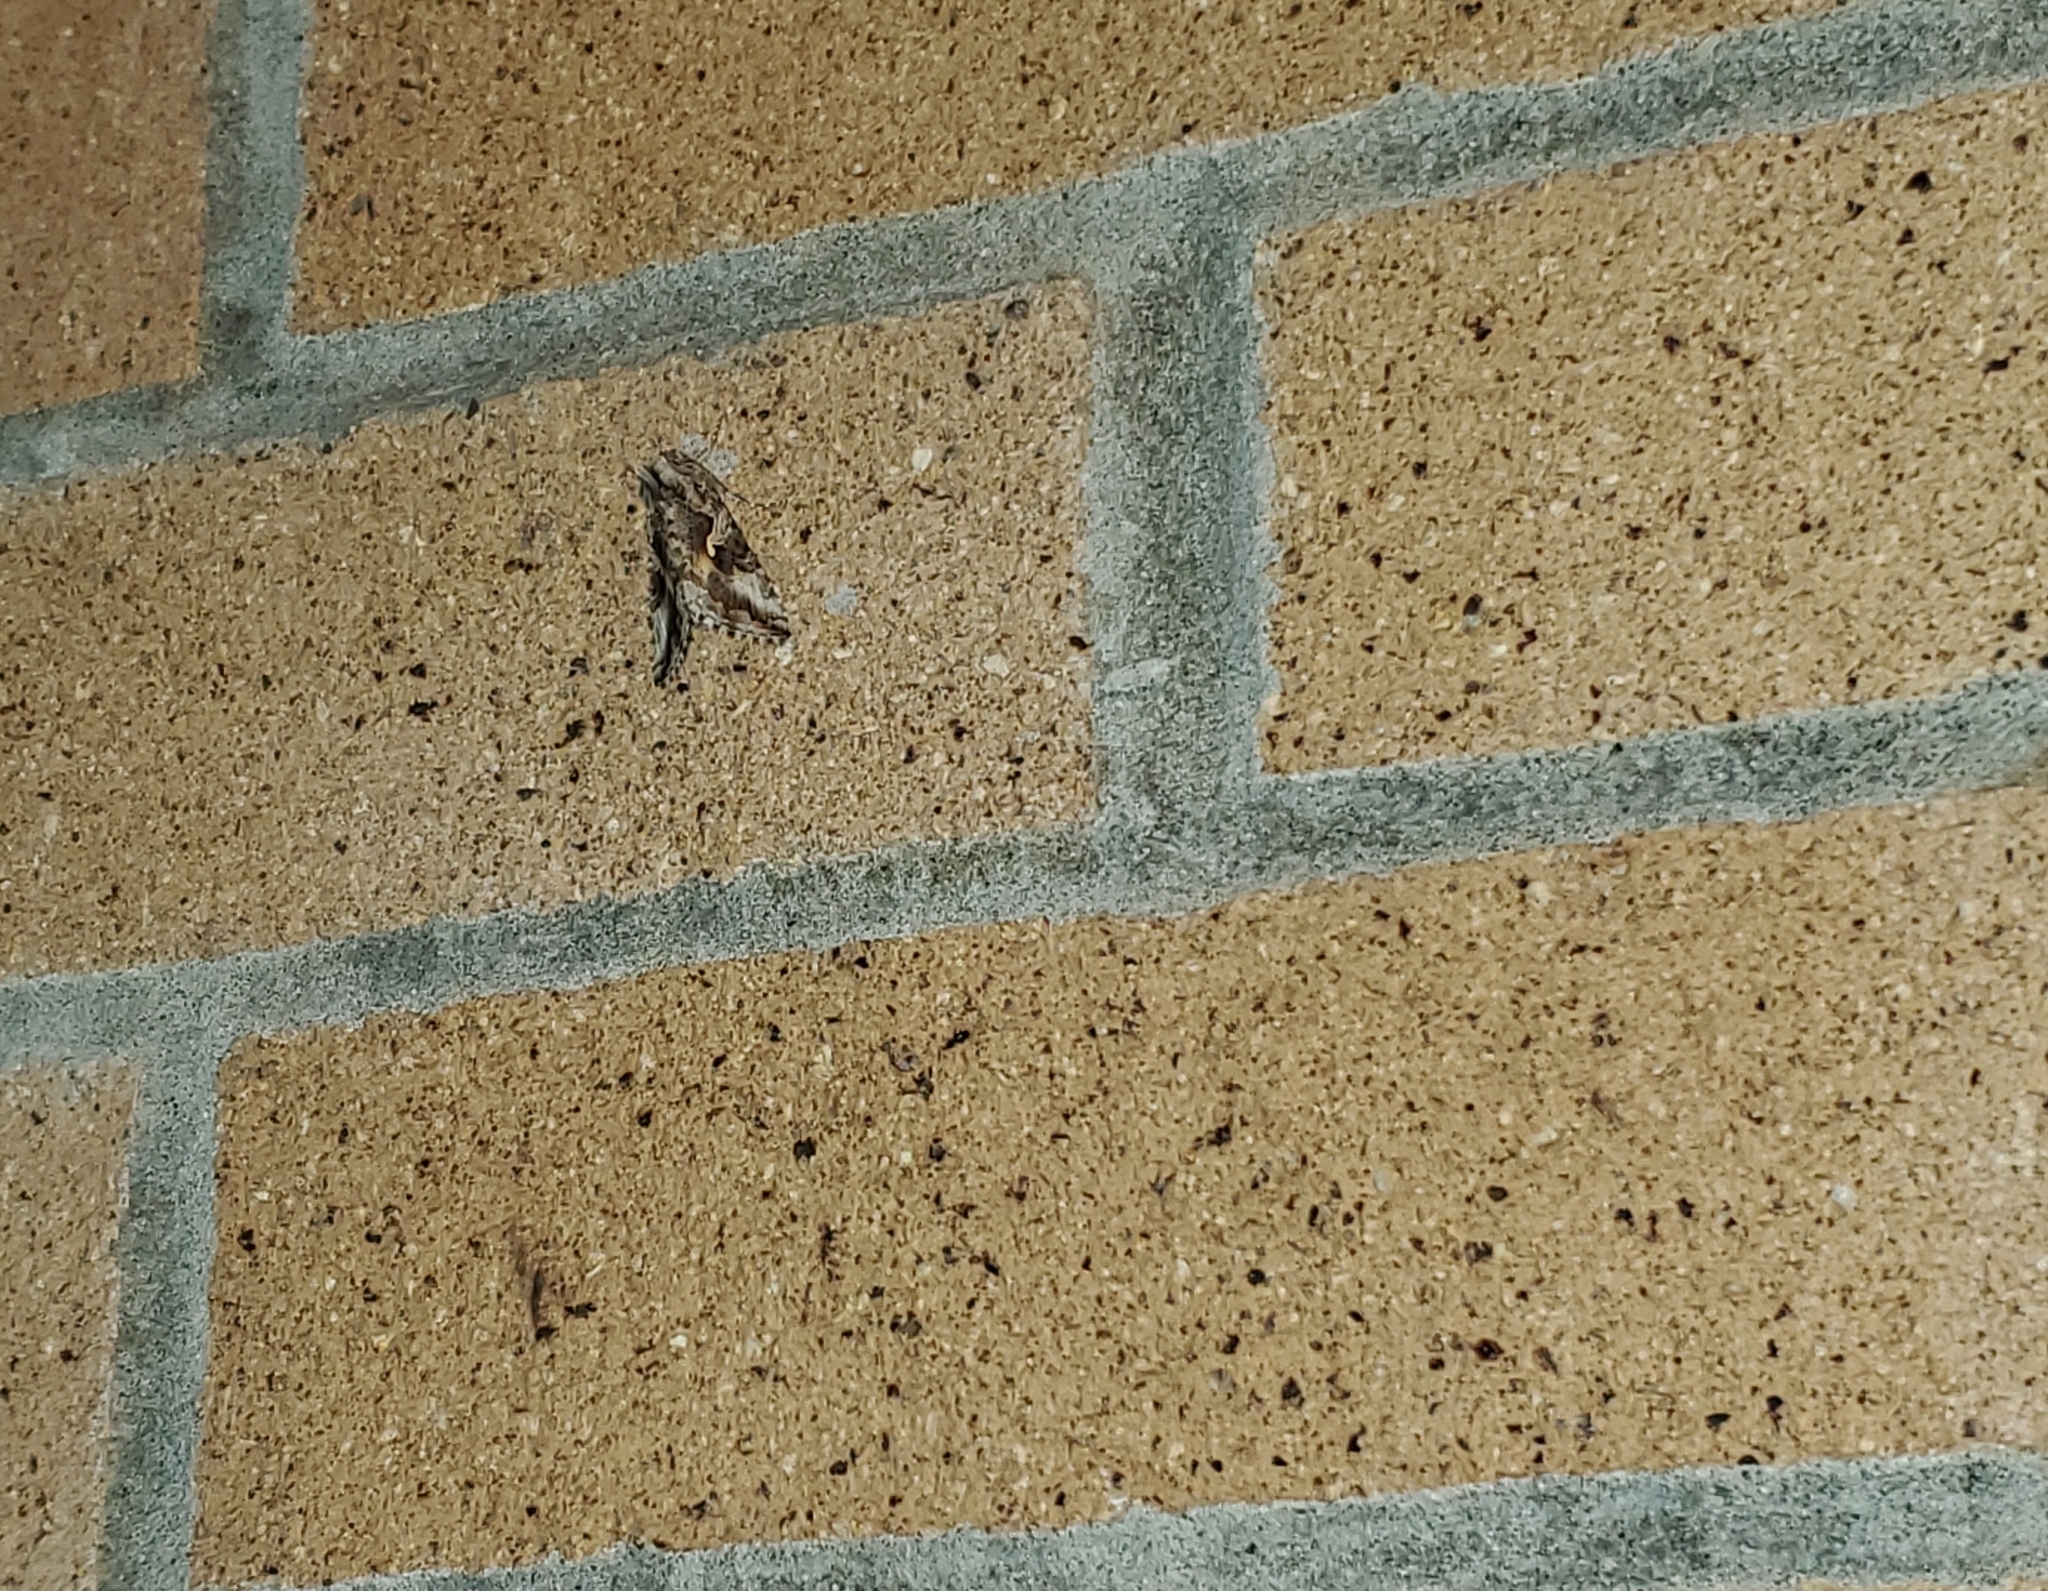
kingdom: Animalia
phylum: Arthropoda
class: Insecta
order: Lepidoptera
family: Noctuidae
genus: Autographa
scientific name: Autographa californica
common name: Alfalfa looper
